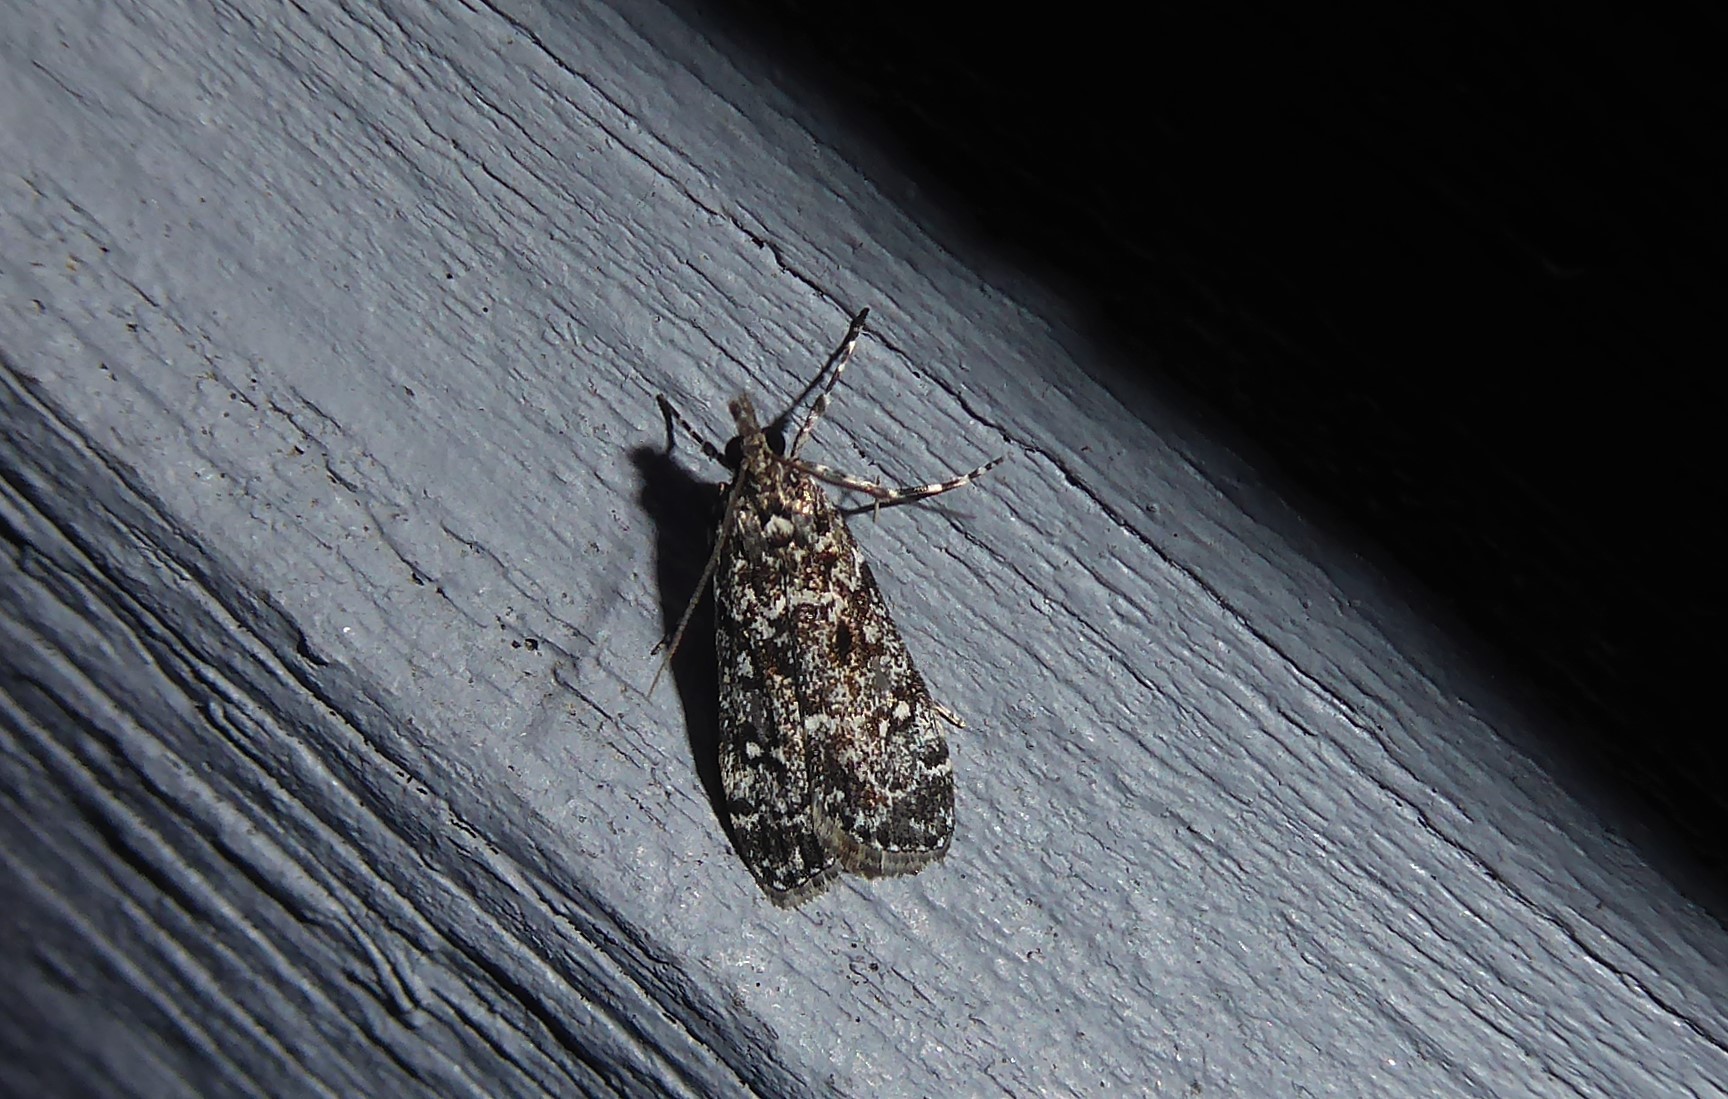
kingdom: Animalia
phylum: Arthropoda
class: Insecta
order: Lepidoptera
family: Crambidae
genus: Eudonia
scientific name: Eudonia philerga
